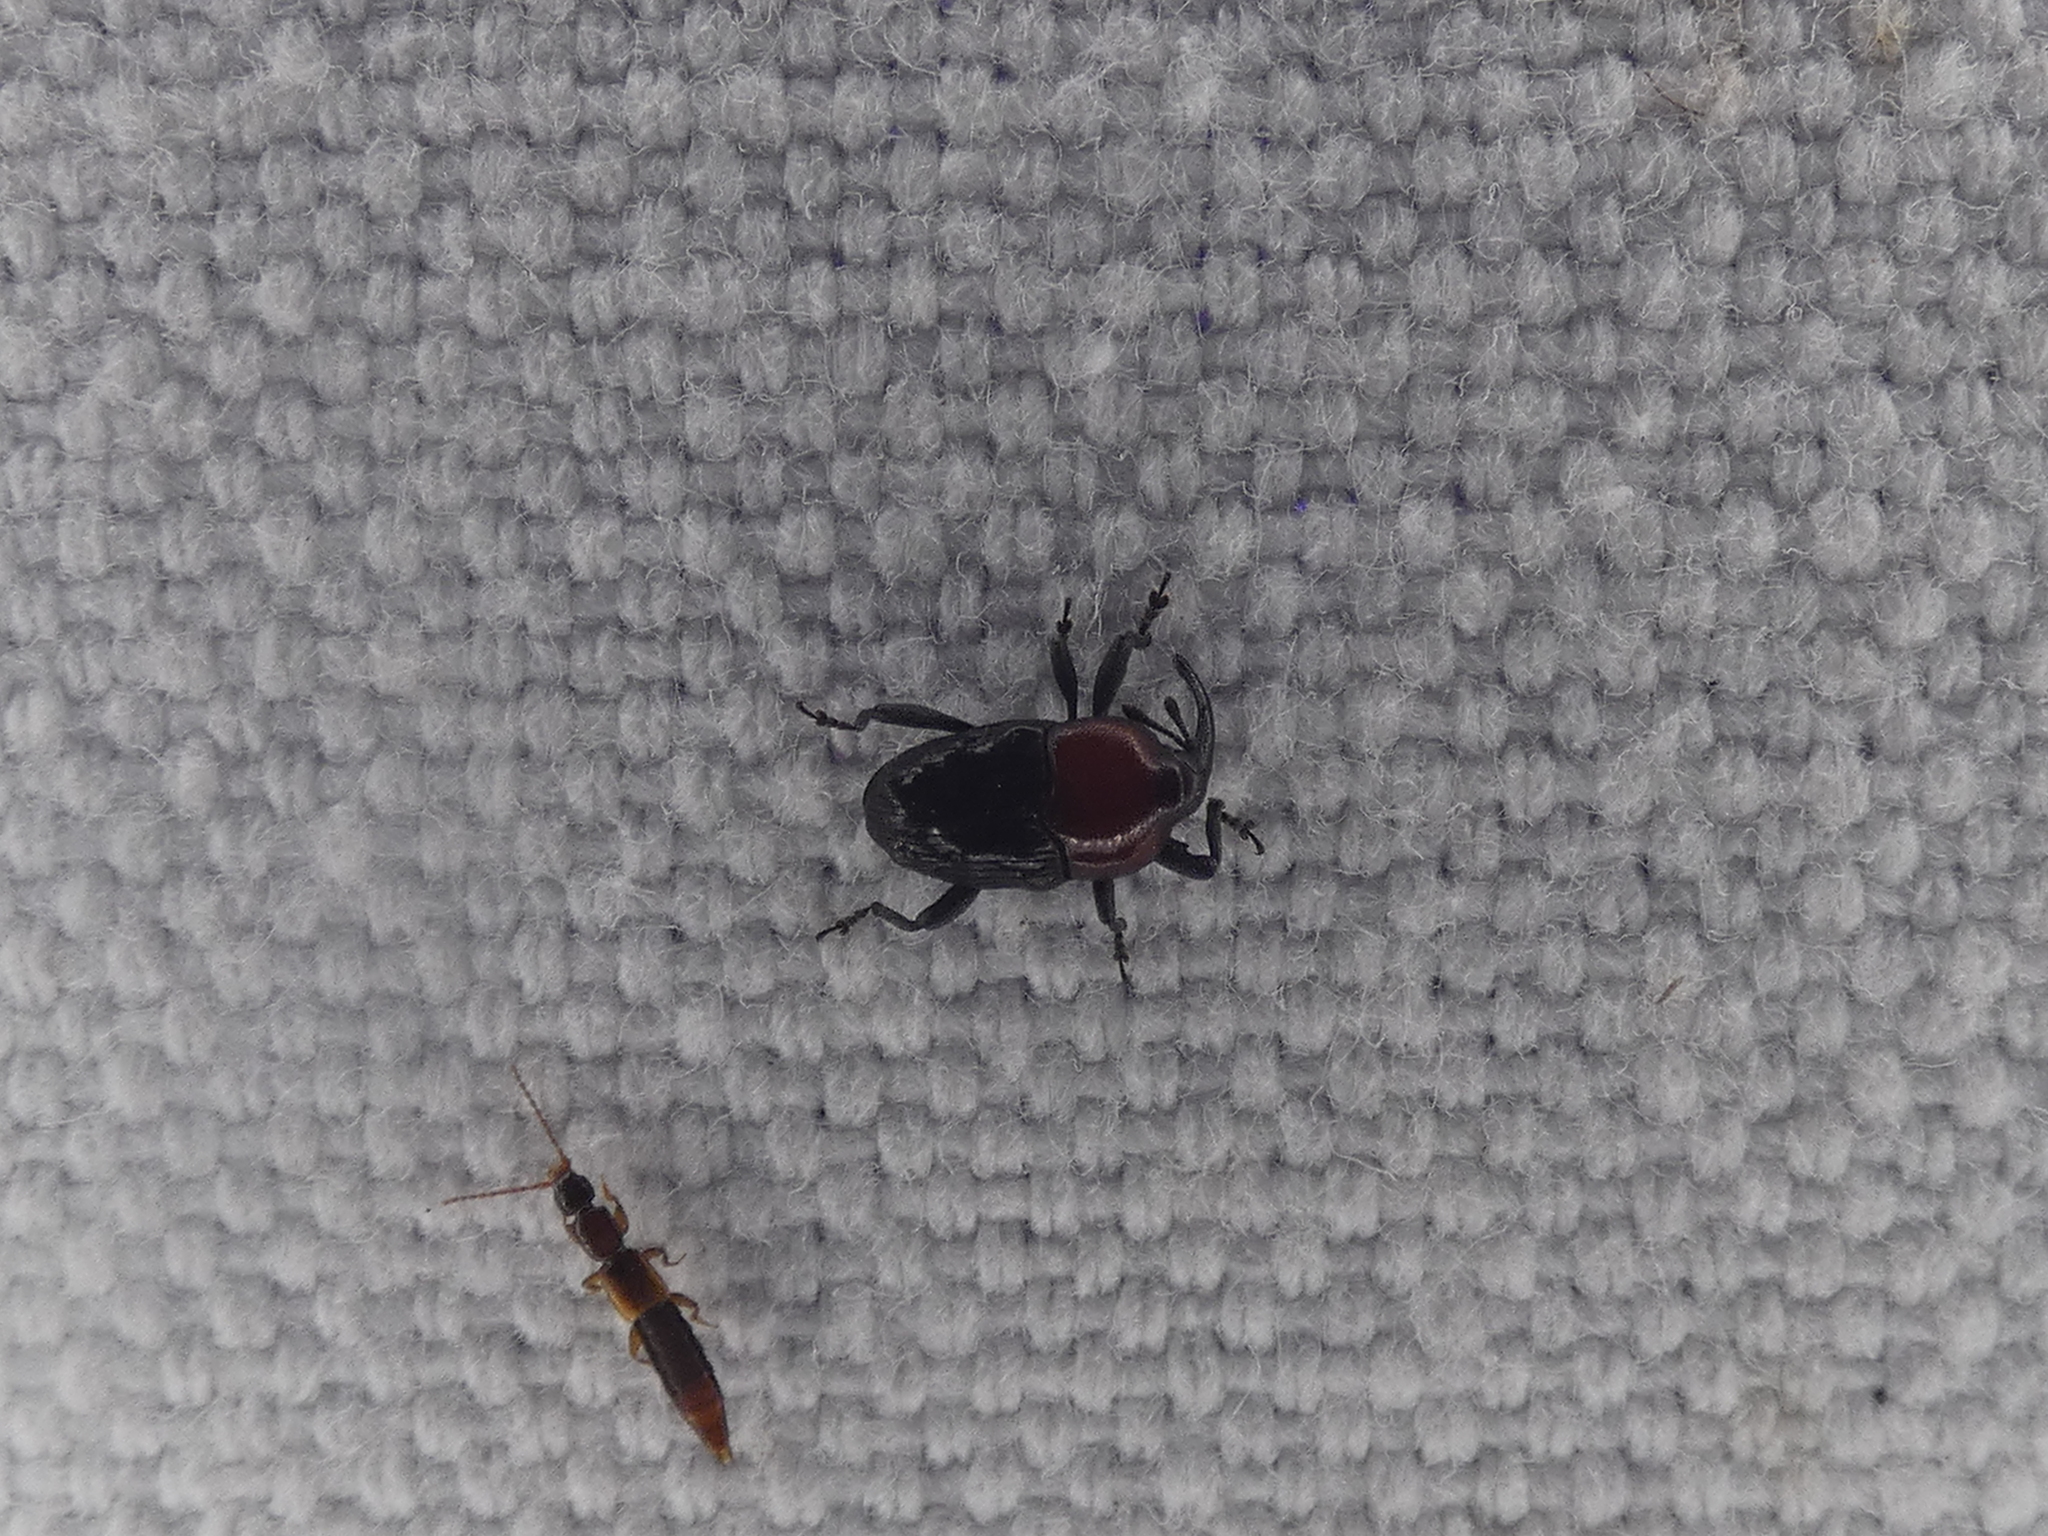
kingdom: Animalia
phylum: Arthropoda
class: Insecta
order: Coleoptera
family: Curculionidae
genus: Madarellus
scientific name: Madarellus undulatus
